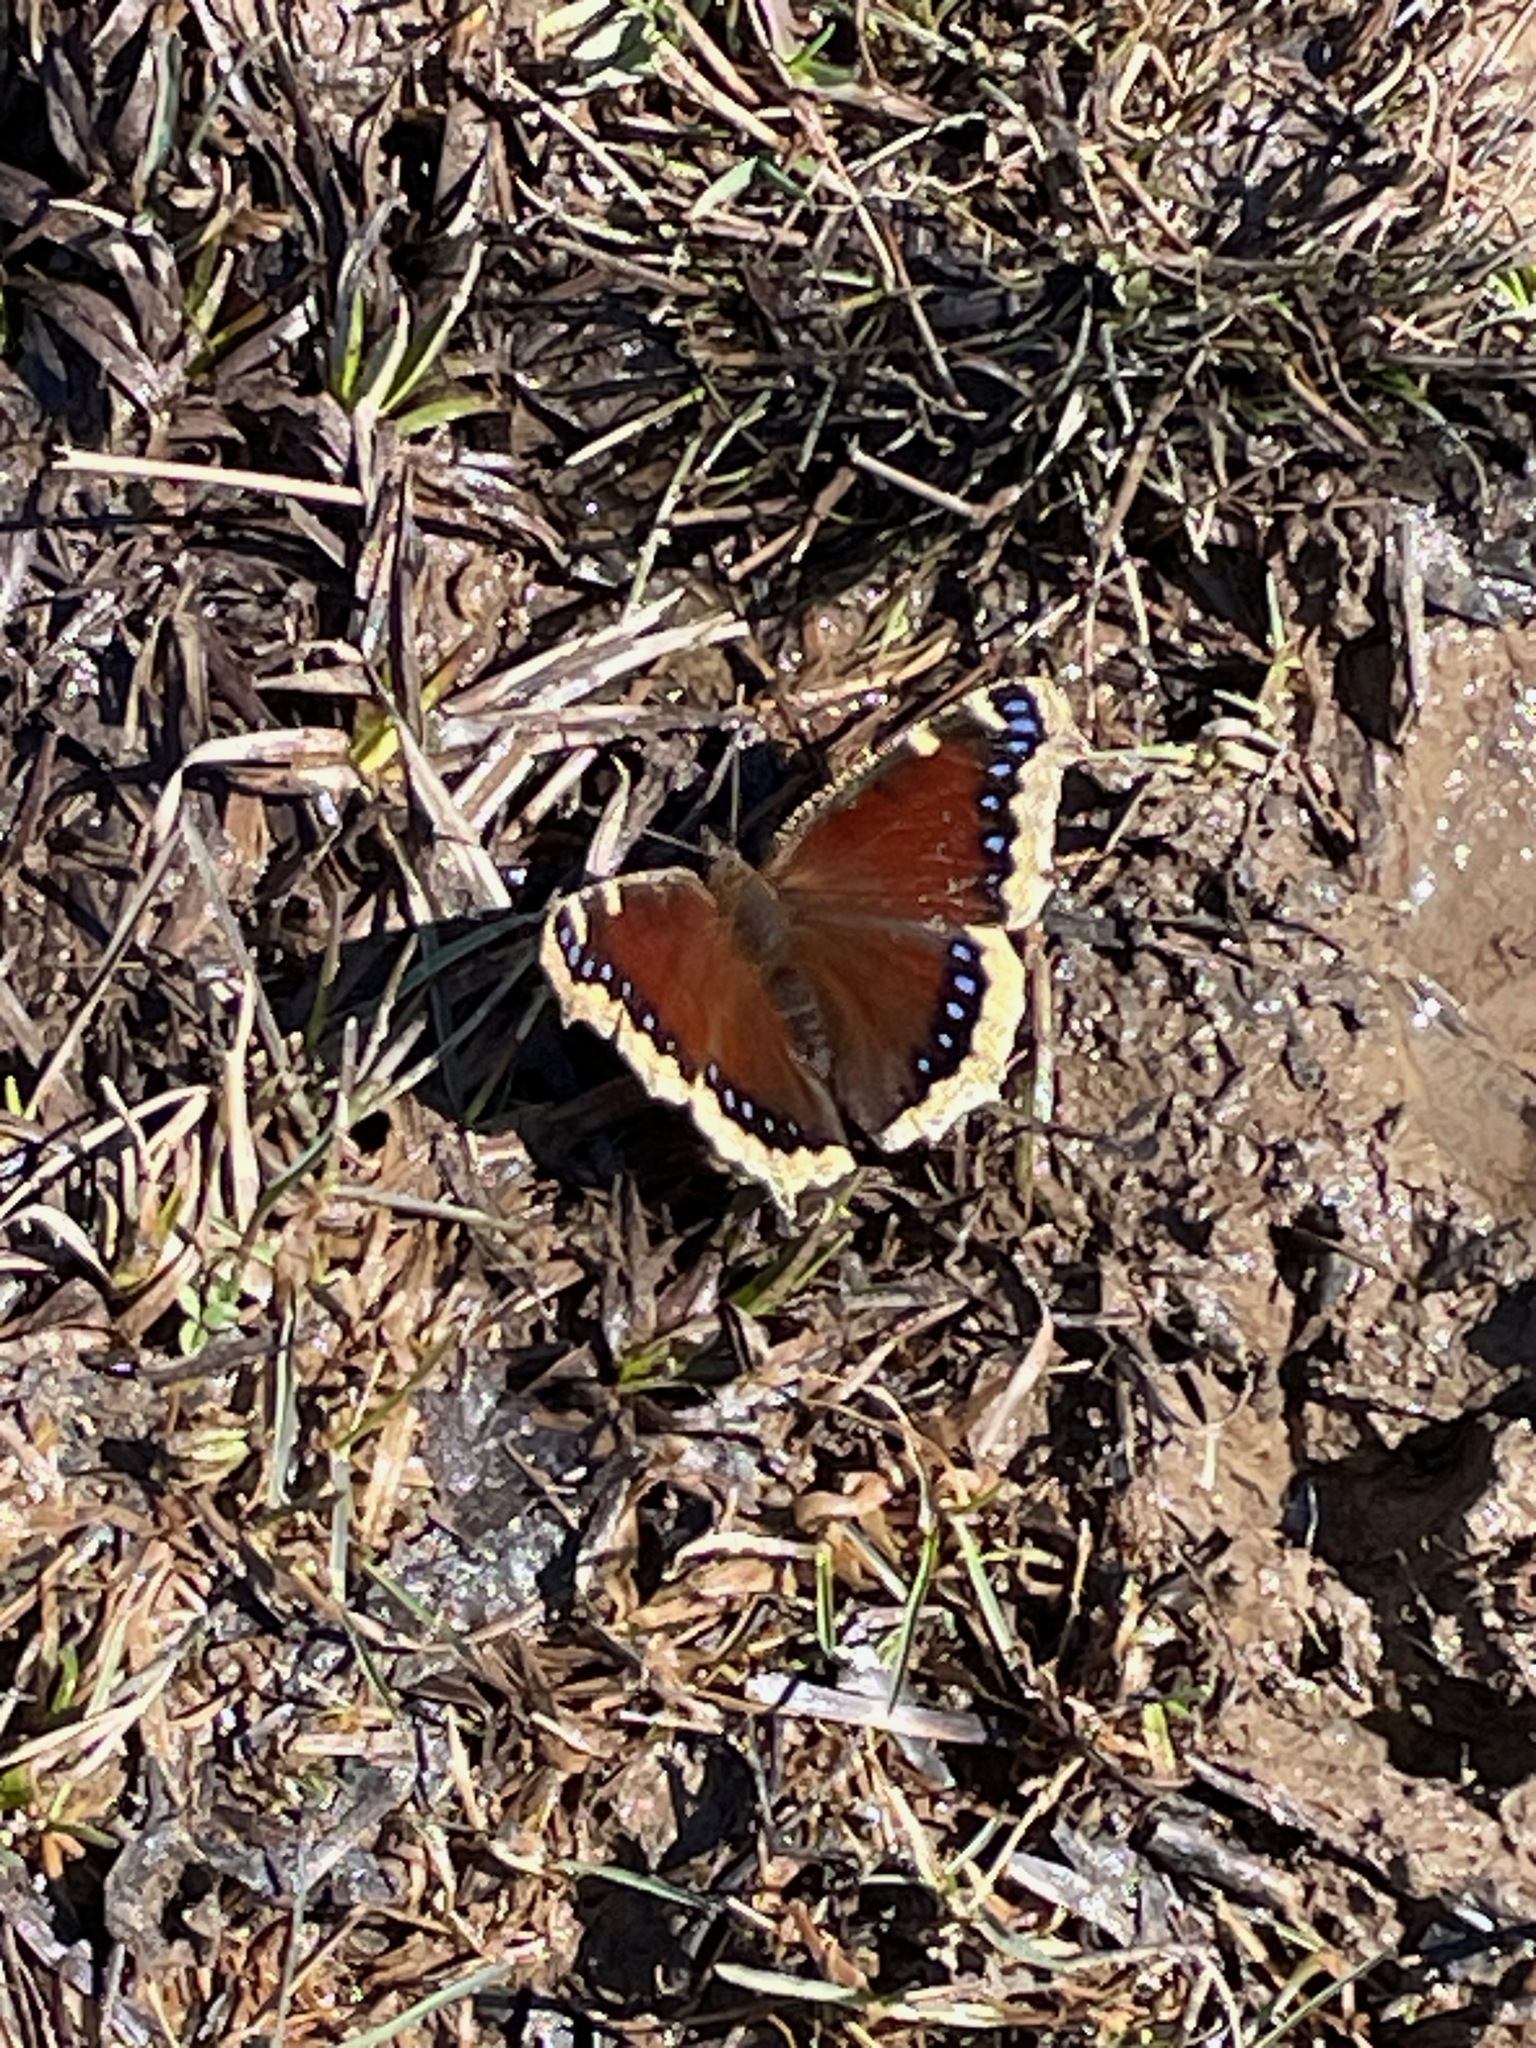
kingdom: Animalia
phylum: Arthropoda
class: Insecta
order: Lepidoptera
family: Nymphalidae
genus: Nymphalis
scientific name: Nymphalis antiopa
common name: Camberwell beauty
